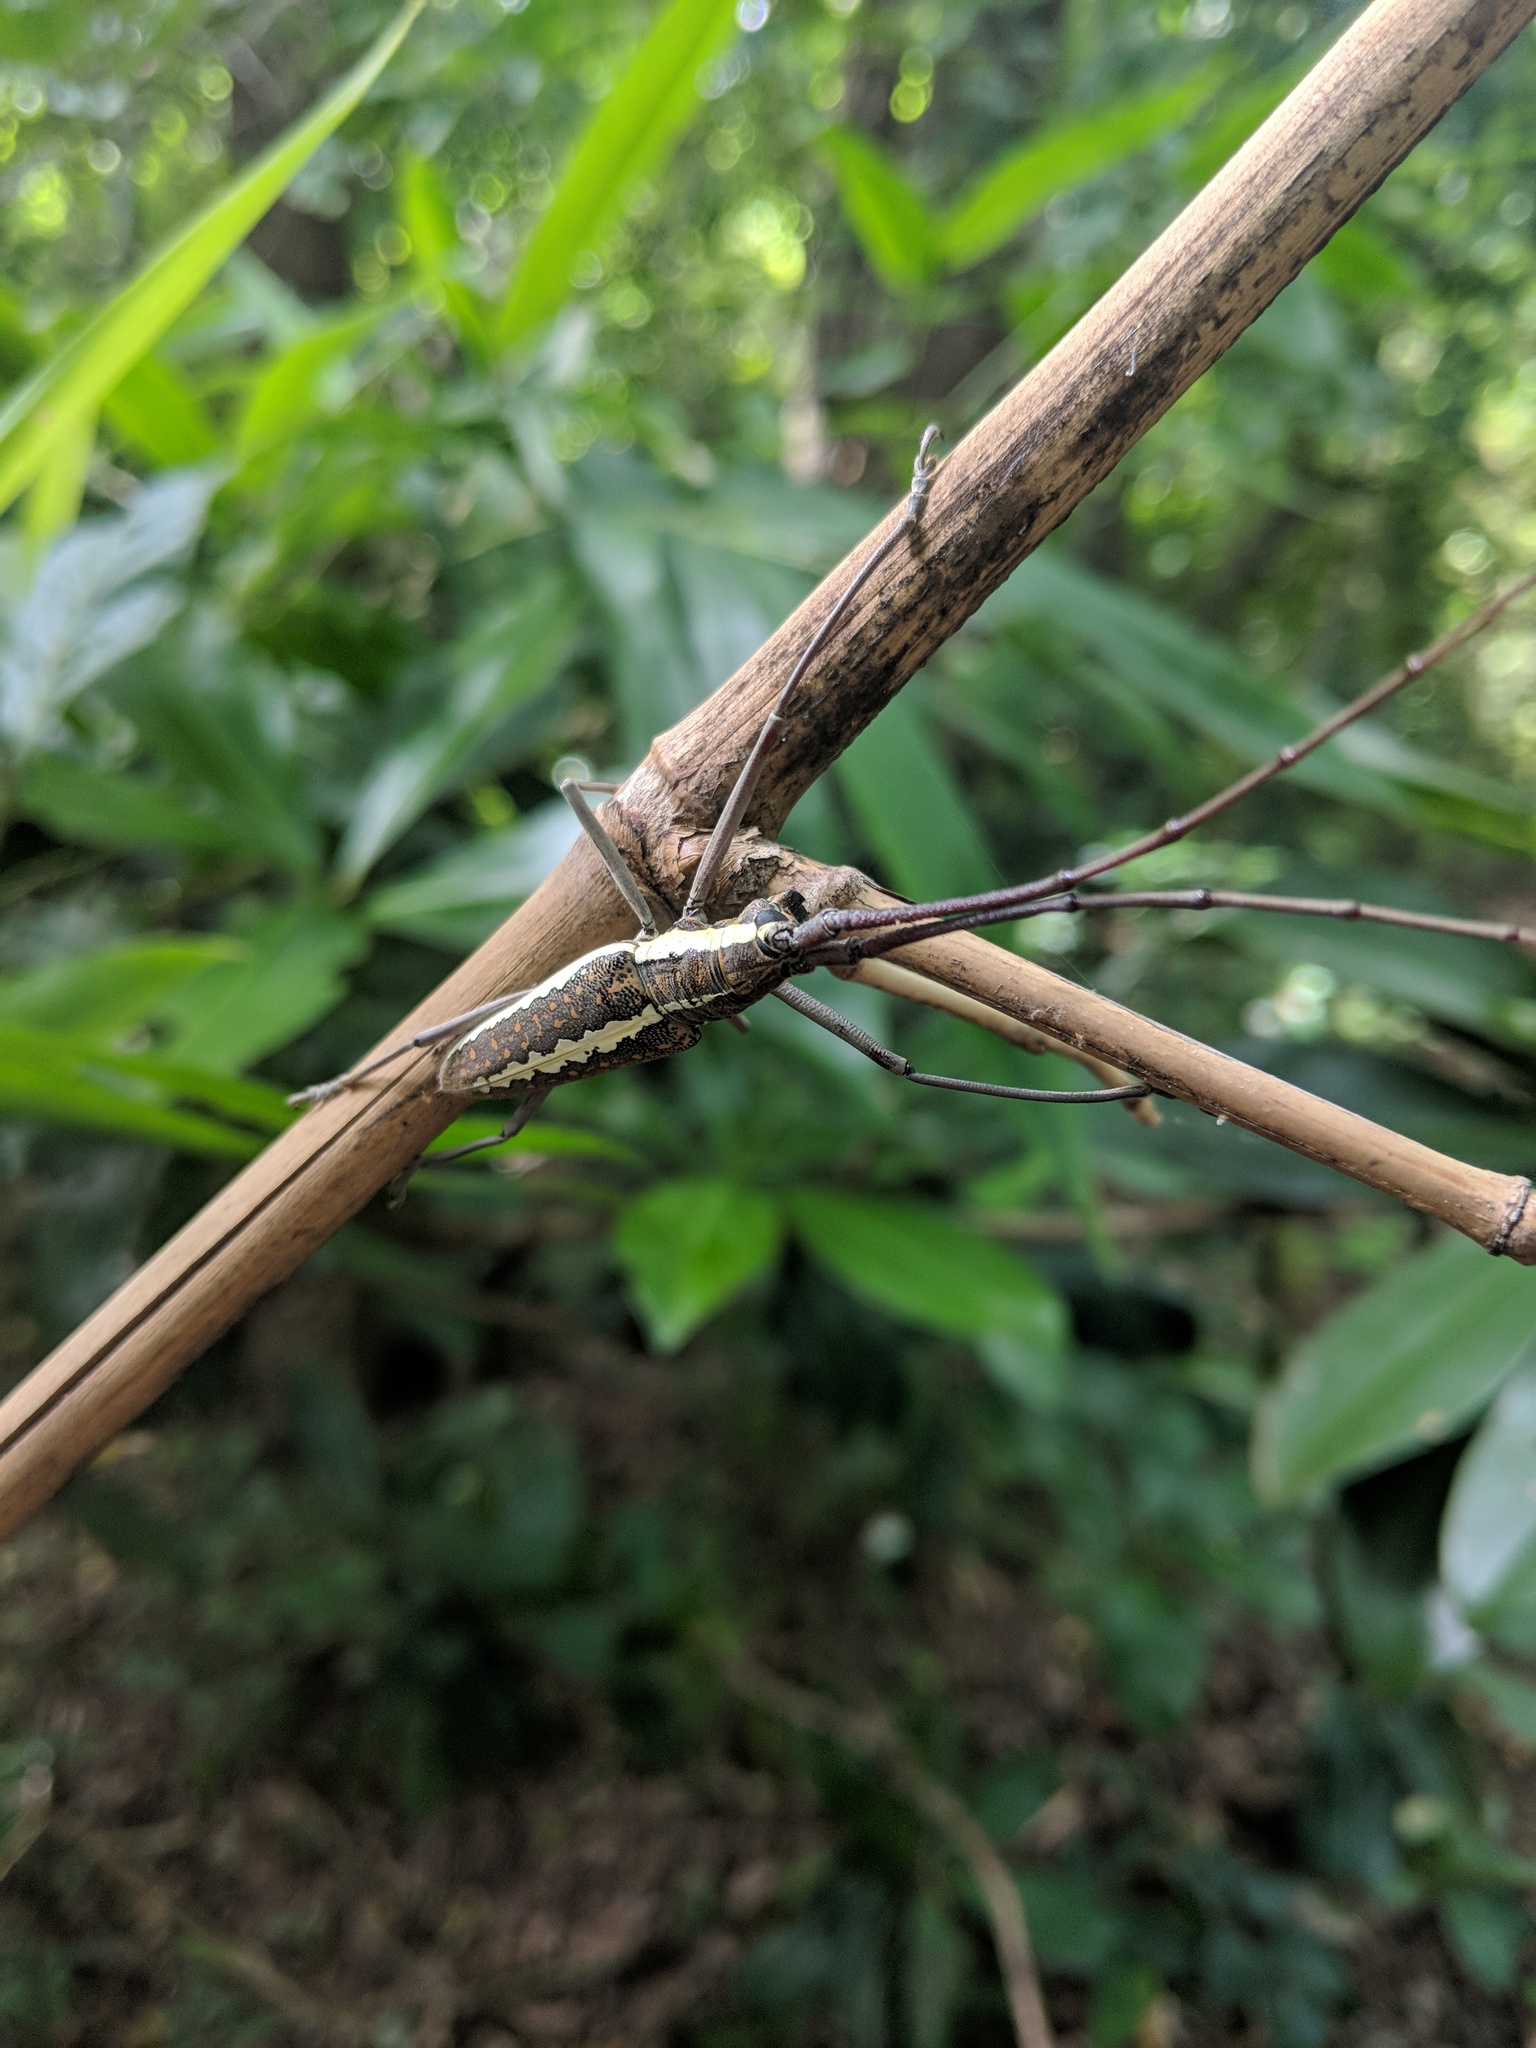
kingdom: Animalia
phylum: Arthropoda
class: Insecta
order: Coleoptera
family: Cerambycidae
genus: Neoptychodes
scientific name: Neoptychodes trilineatus
